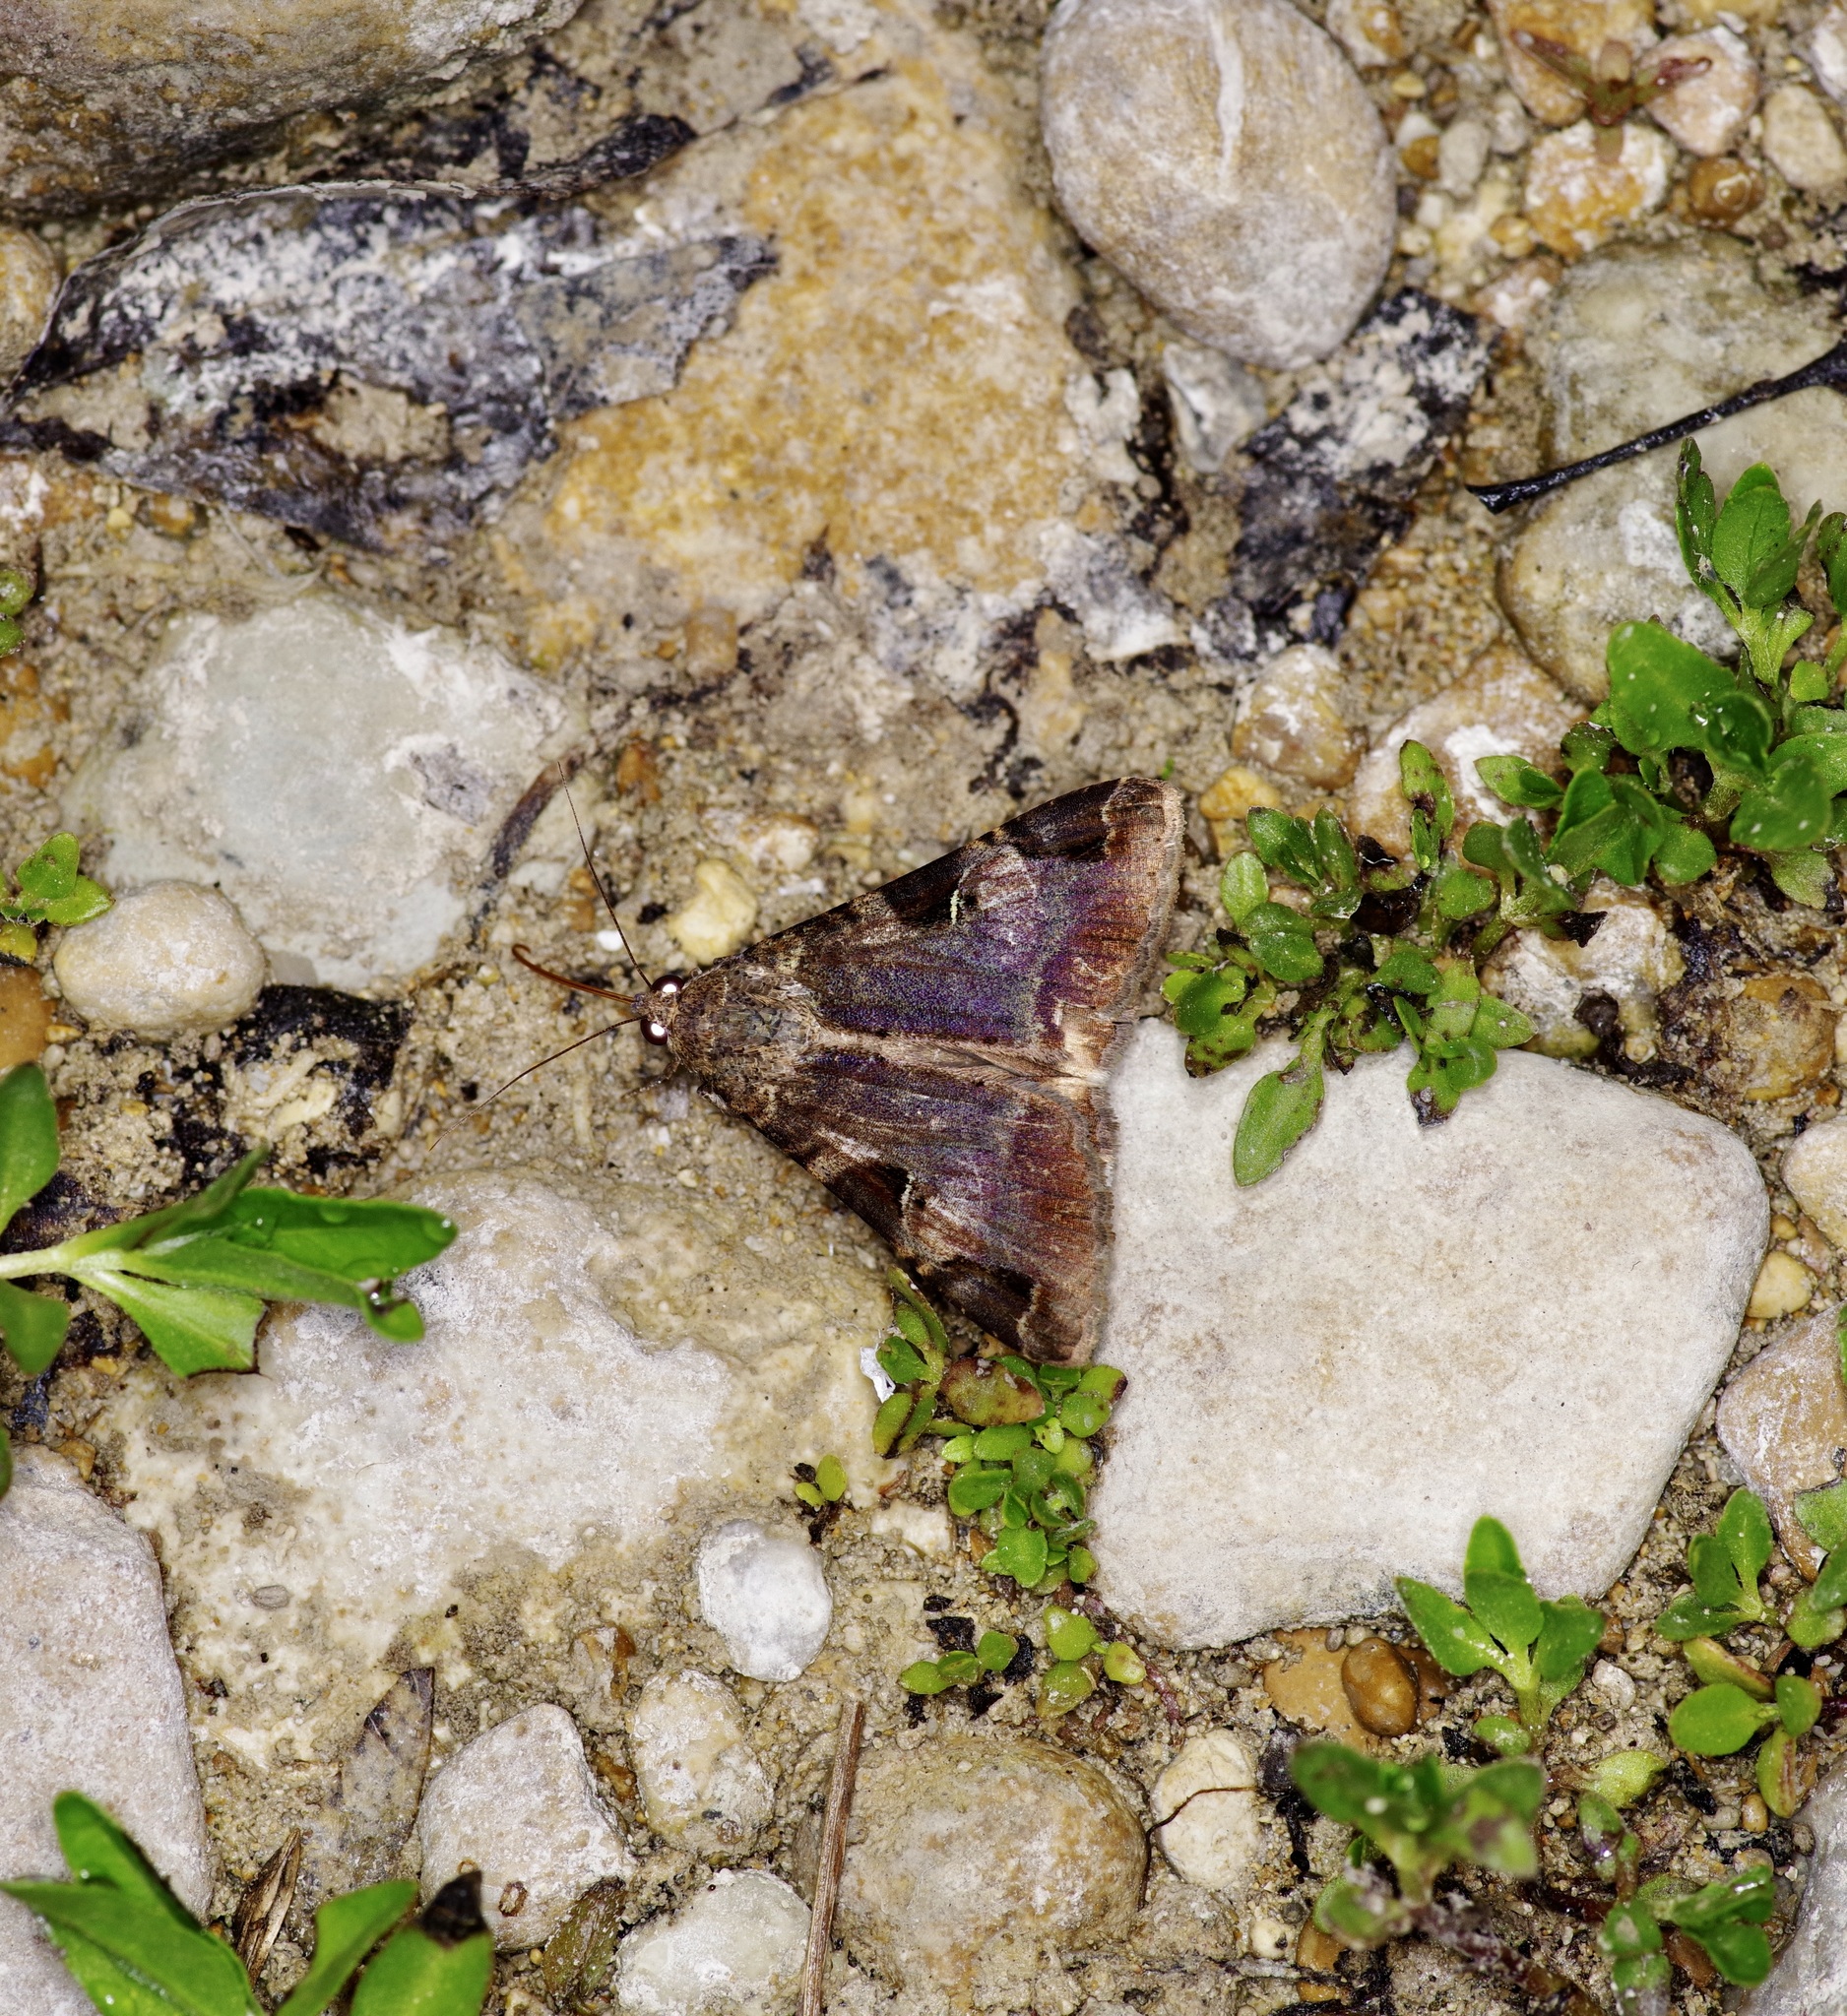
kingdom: Animalia
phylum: Arthropoda
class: Insecta
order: Lepidoptera
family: Erebidae
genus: Melipotis
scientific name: Melipotis perpendicularis
